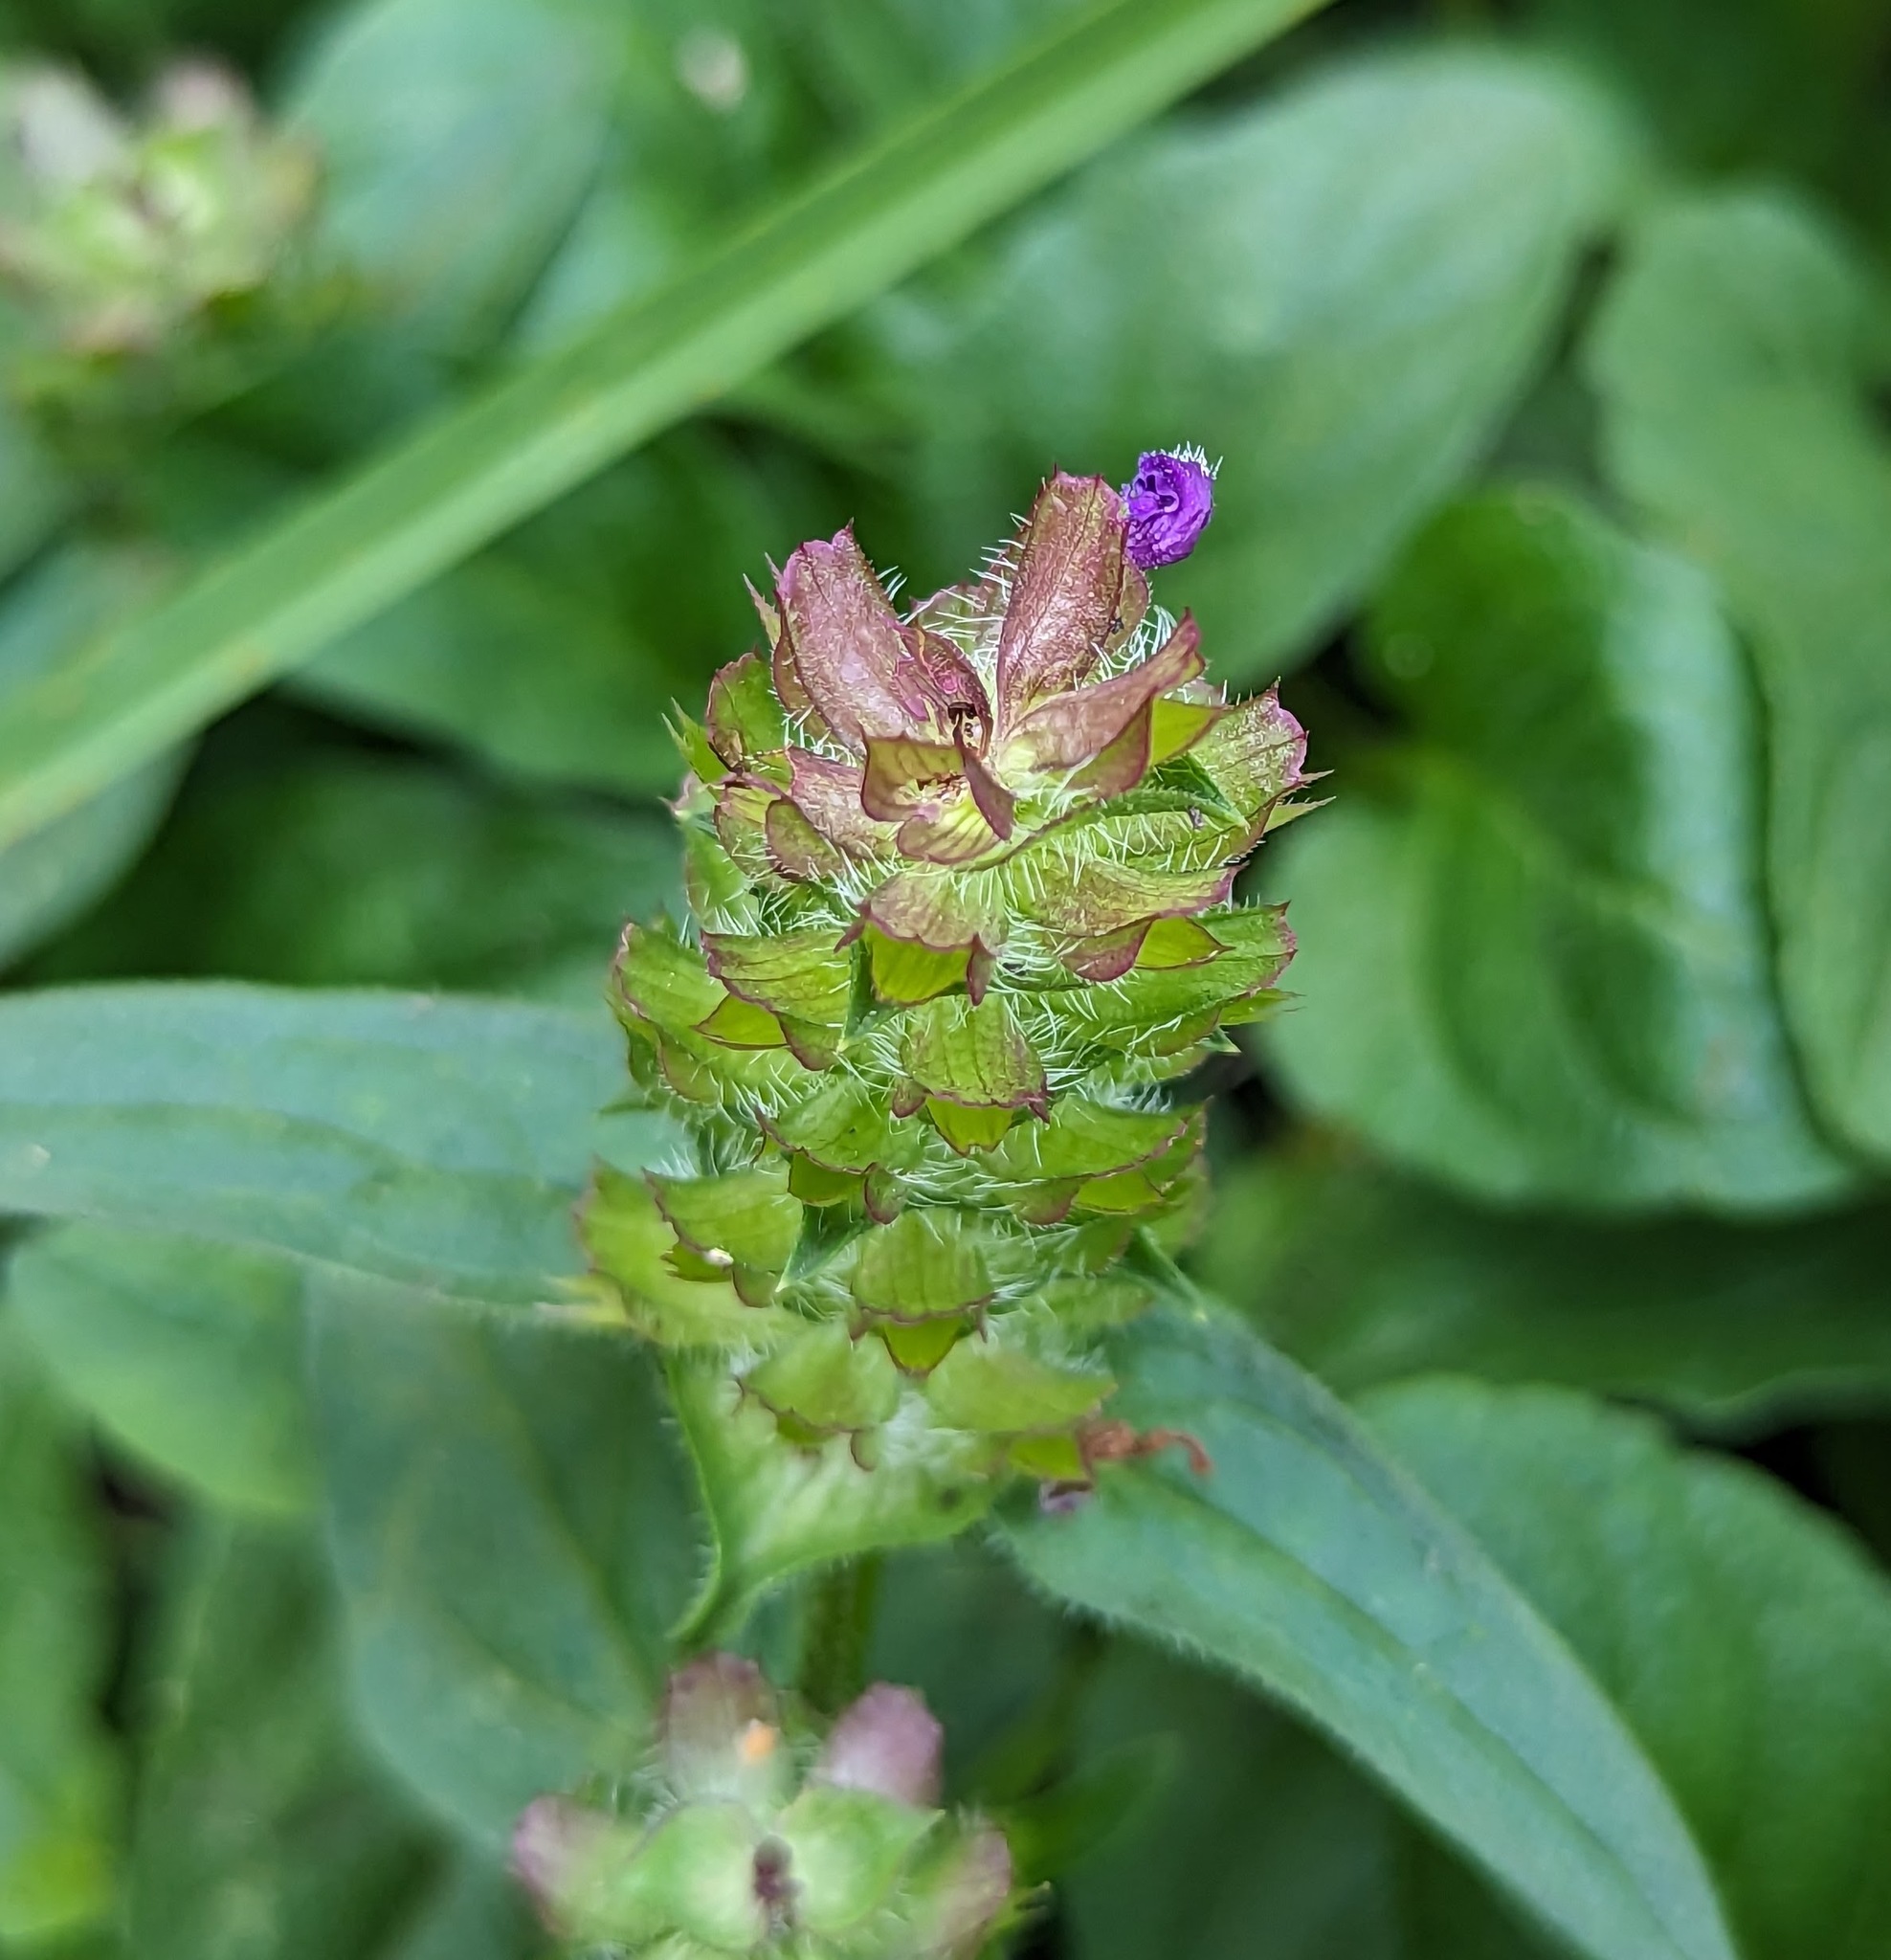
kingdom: Plantae
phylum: Tracheophyta
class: Magnoliopsida
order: Lamiales
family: Lamiaceae
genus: Prunella
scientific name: Prunella vulgaris
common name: Heal-all
